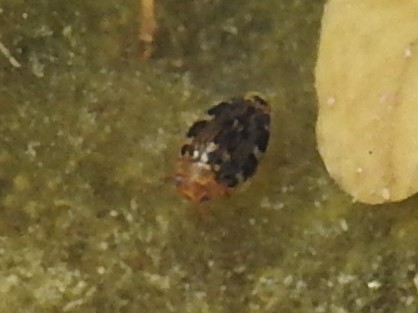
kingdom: Animalia
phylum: Arthropoda
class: Insecta
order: Coleoptera
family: Dytiscidae
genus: Laccophilus
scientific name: Laccophilus maculosus
